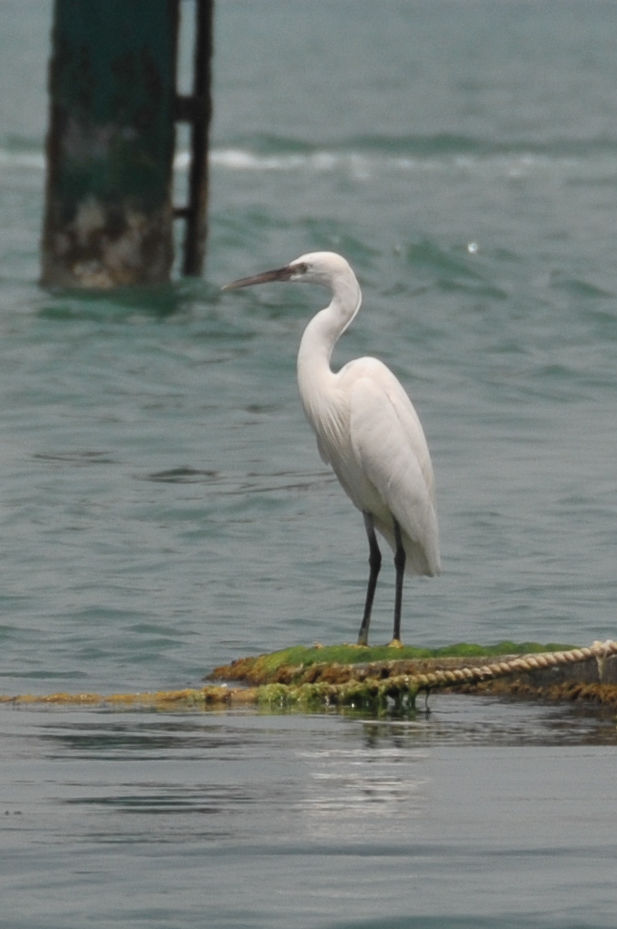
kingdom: Animalia
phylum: Chordata
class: Aves
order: Pelecaniformes
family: Ardeidae
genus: Egretta
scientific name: Egretta gularis
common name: Western reef-heron
